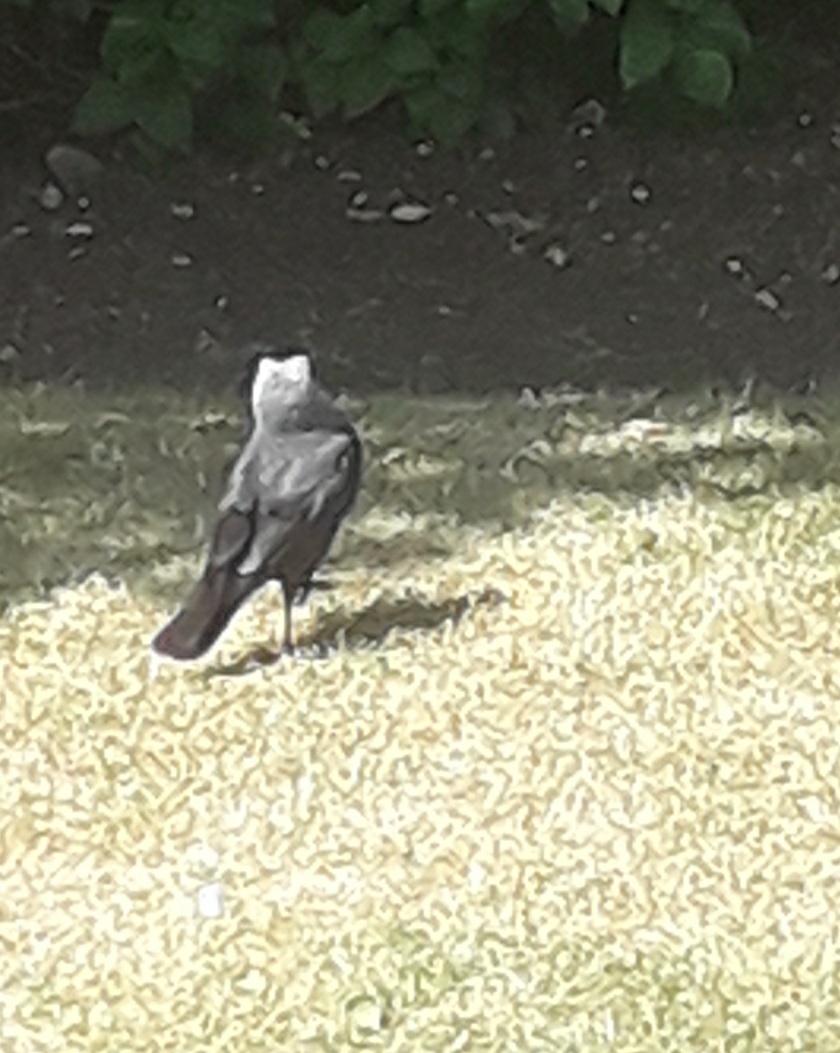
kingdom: Animalia
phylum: Chordata
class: Aves
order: Passeriformes
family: Corvidae
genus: Coloeus
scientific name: Coloeus monedula
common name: Western jackdaw
